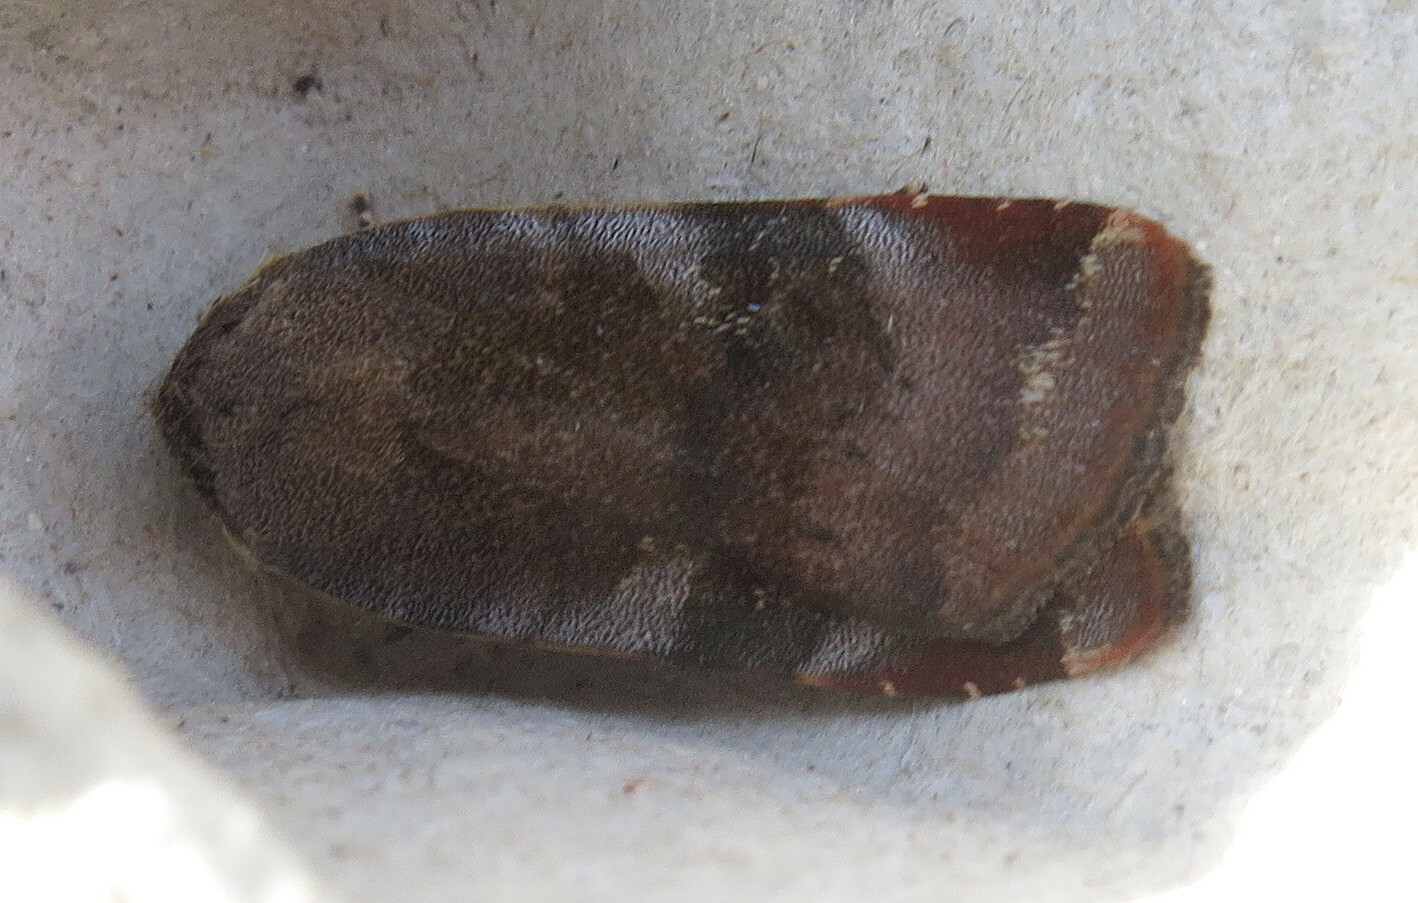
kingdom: Animalia
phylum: Arthropoda
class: Insecta
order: Lepidoptera
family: Noctuidae
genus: Noctua
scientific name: Noctua janthe
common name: Lesser broad-bordered yellow underwing
